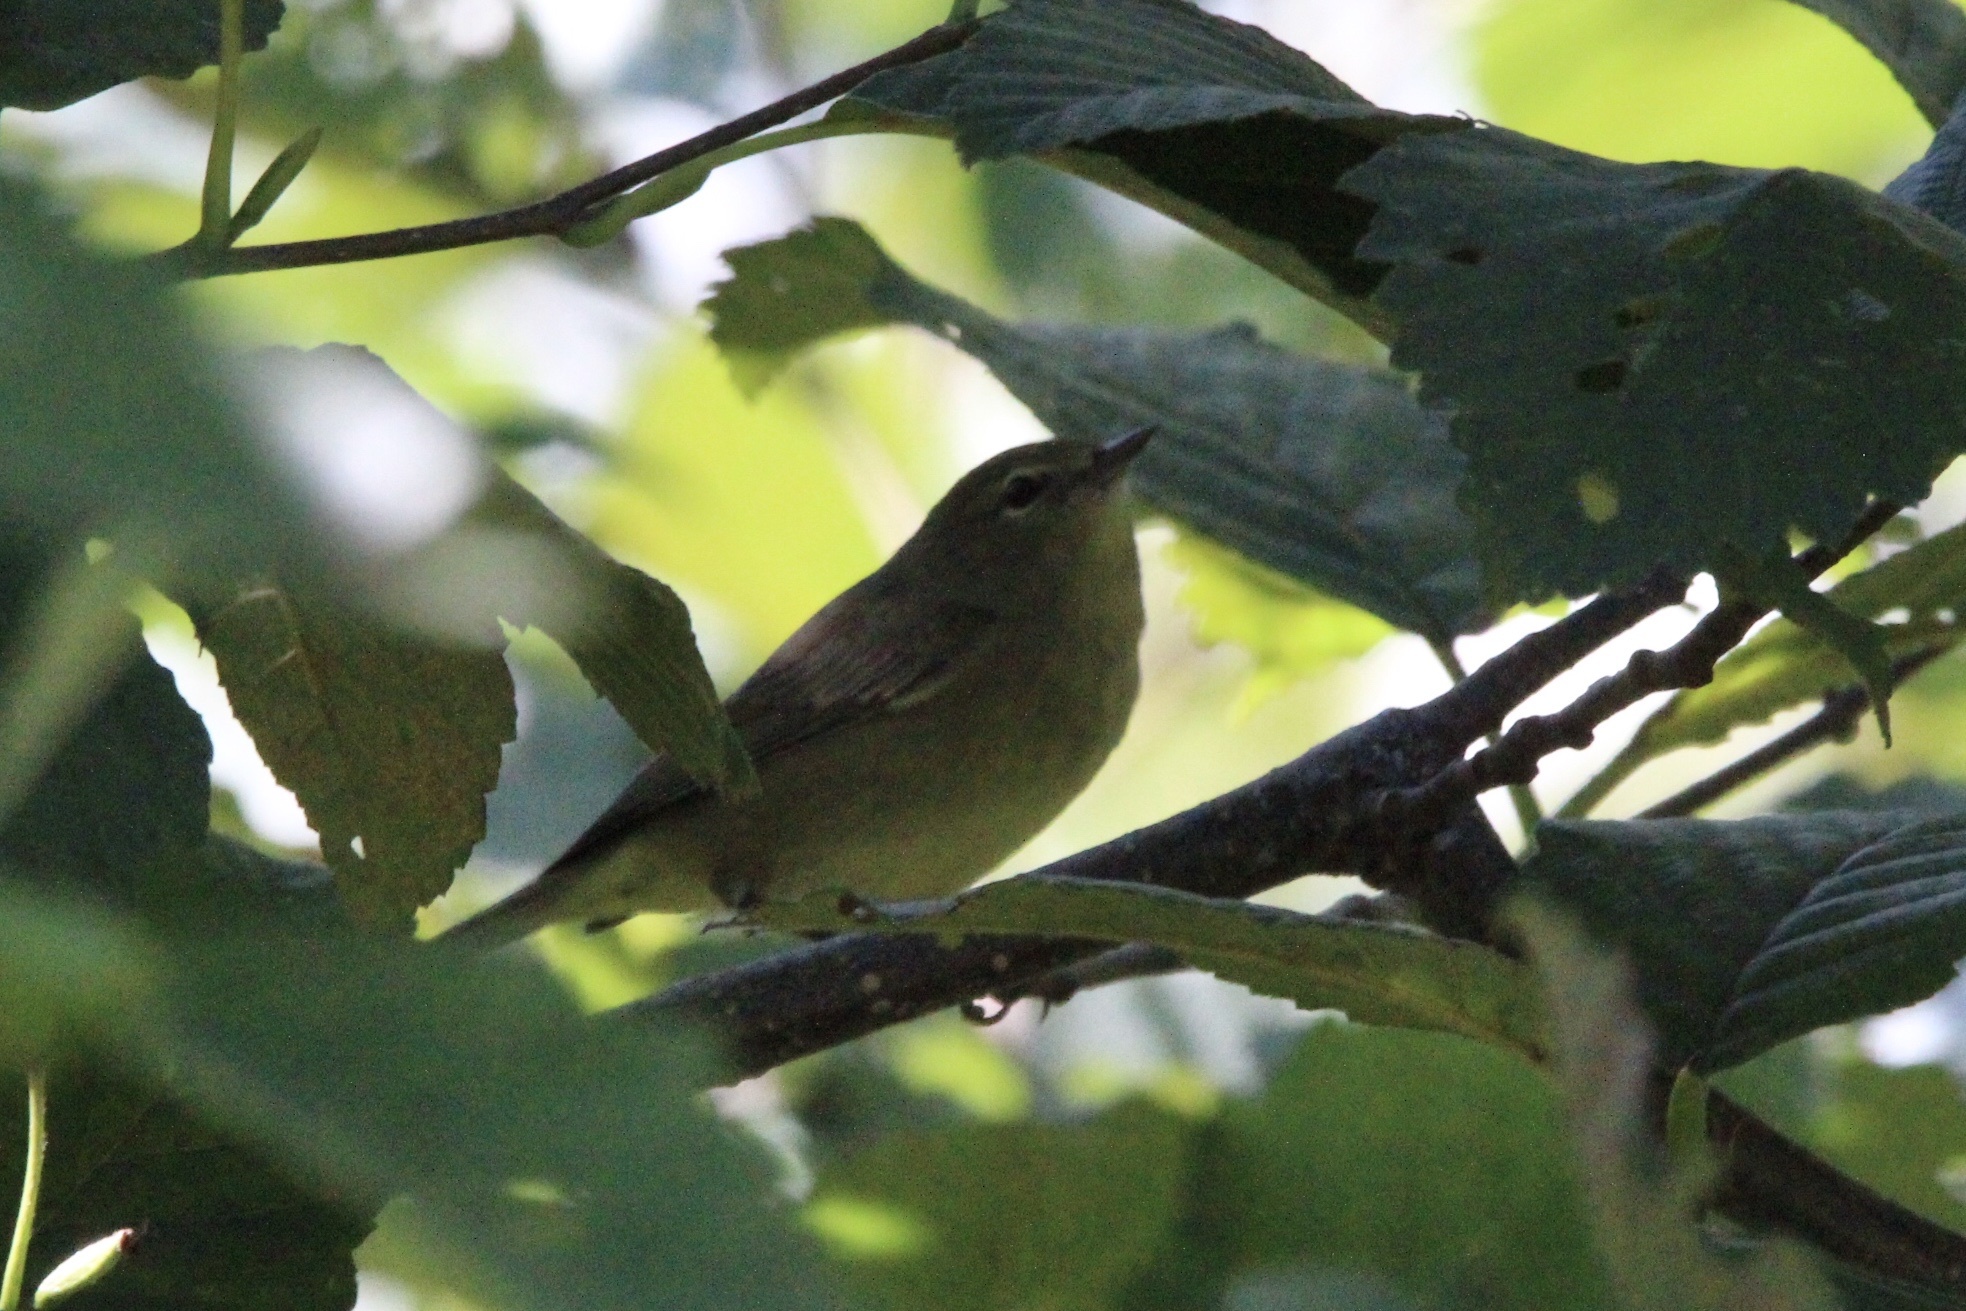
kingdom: Animalia
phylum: Chordata
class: Aves
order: Passeriformes
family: Parulidae
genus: Leiothlypis
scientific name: Leiothlypis celata
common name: Orange-crowned warbler
